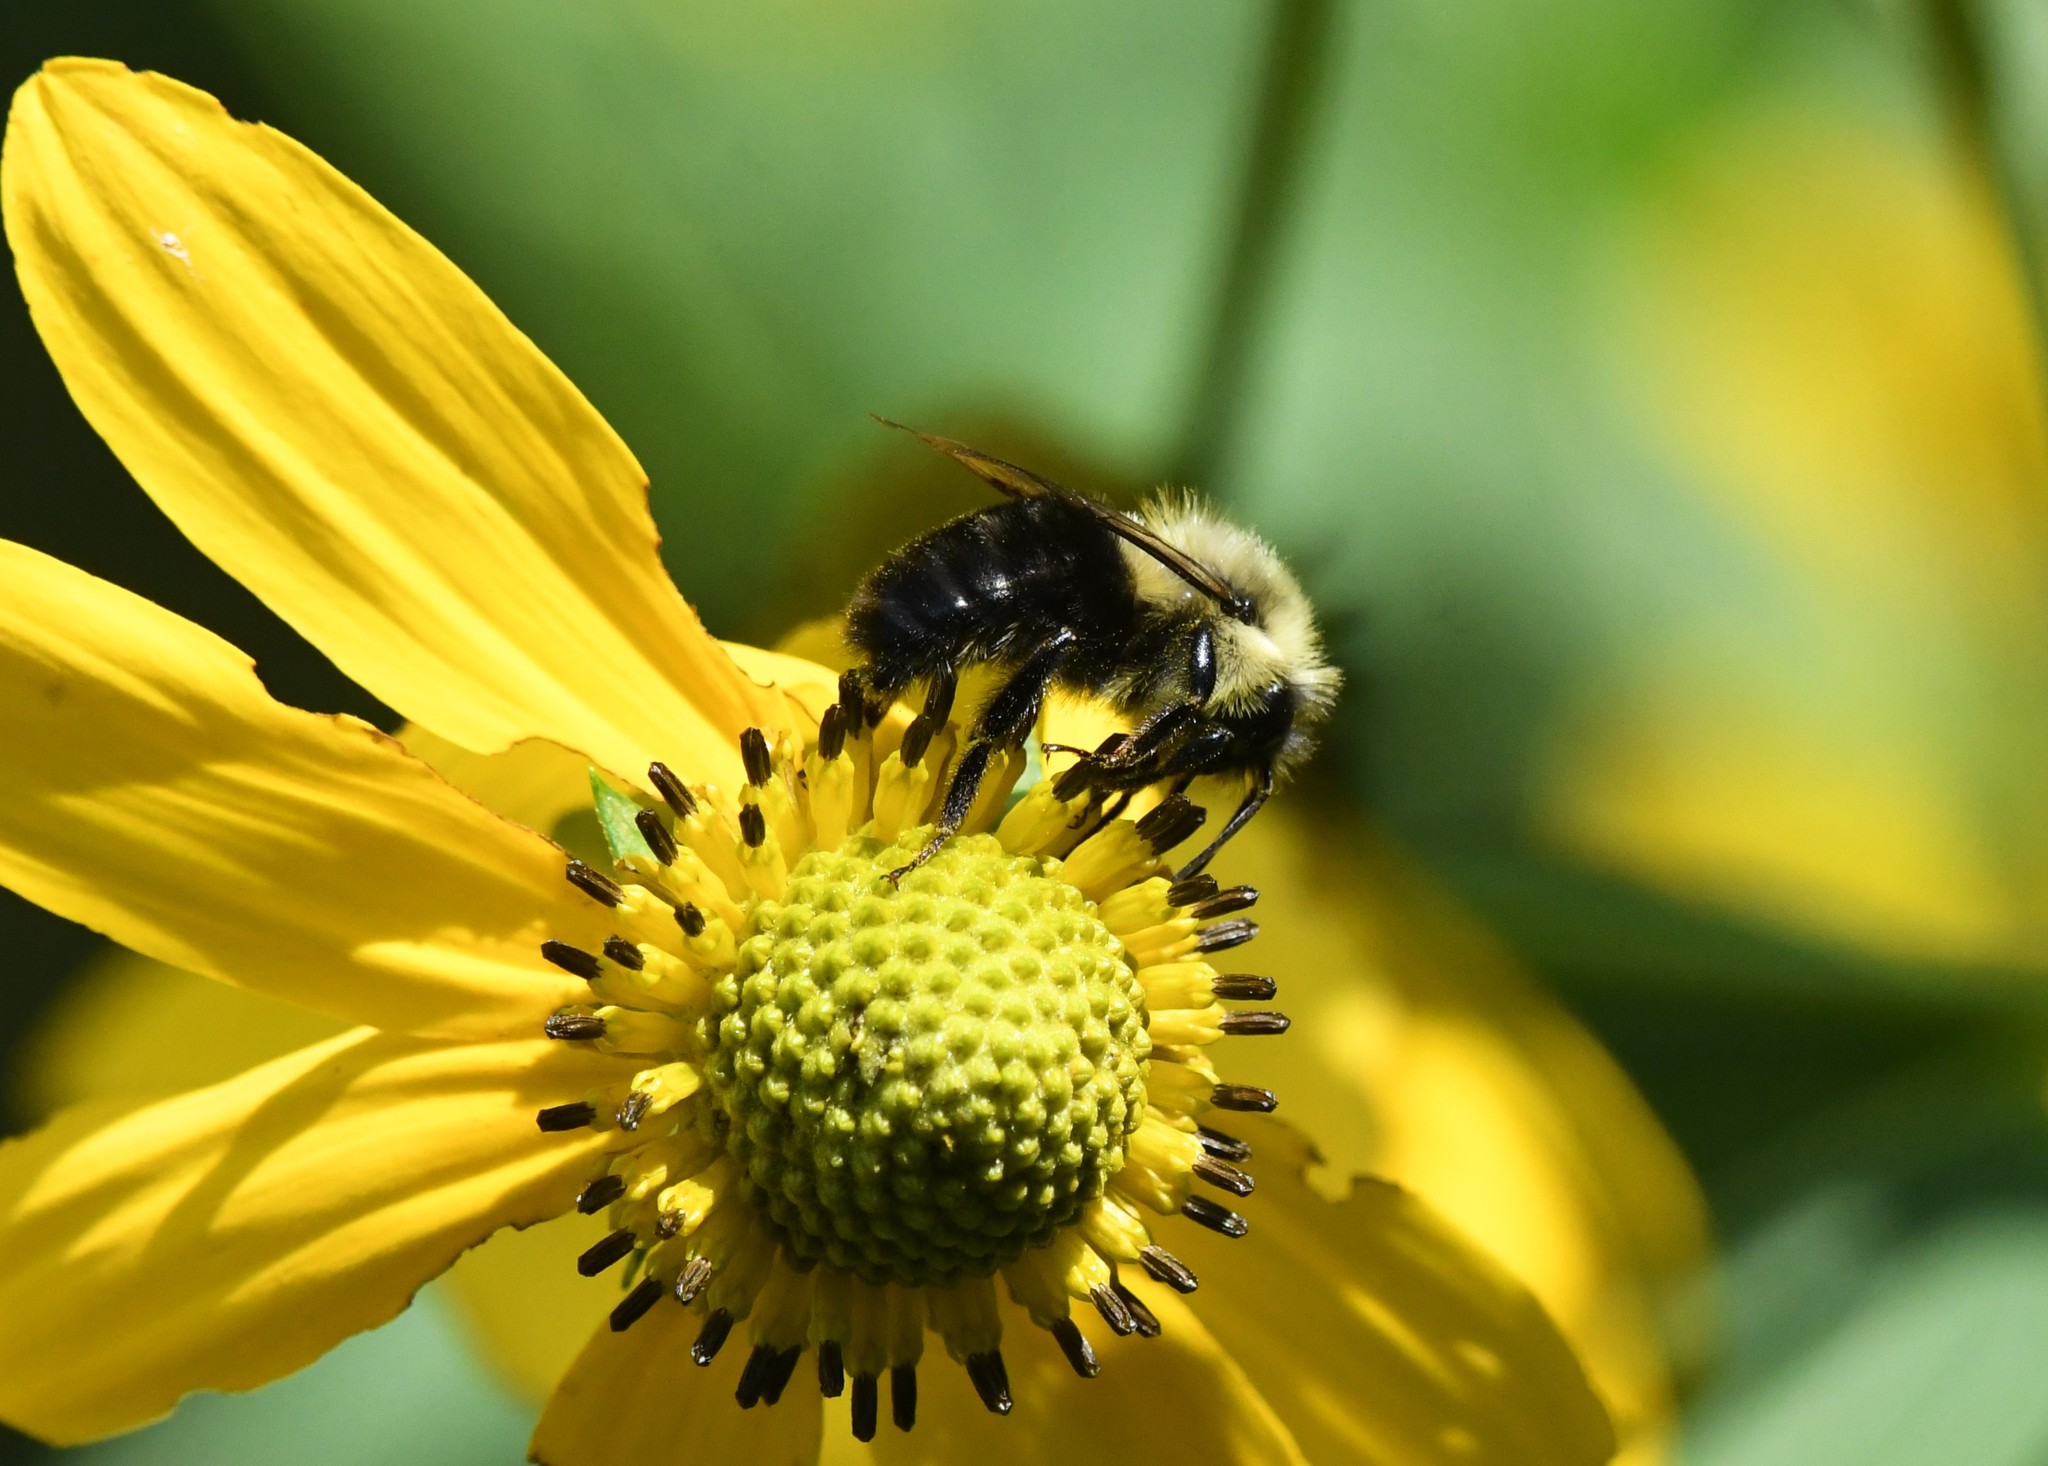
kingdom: Animalia
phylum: Arthropoda
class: Insecta
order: Hymenoptera
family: Apidae
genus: Bombus
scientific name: Bombus impatiens
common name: Common eastern bumble bee
